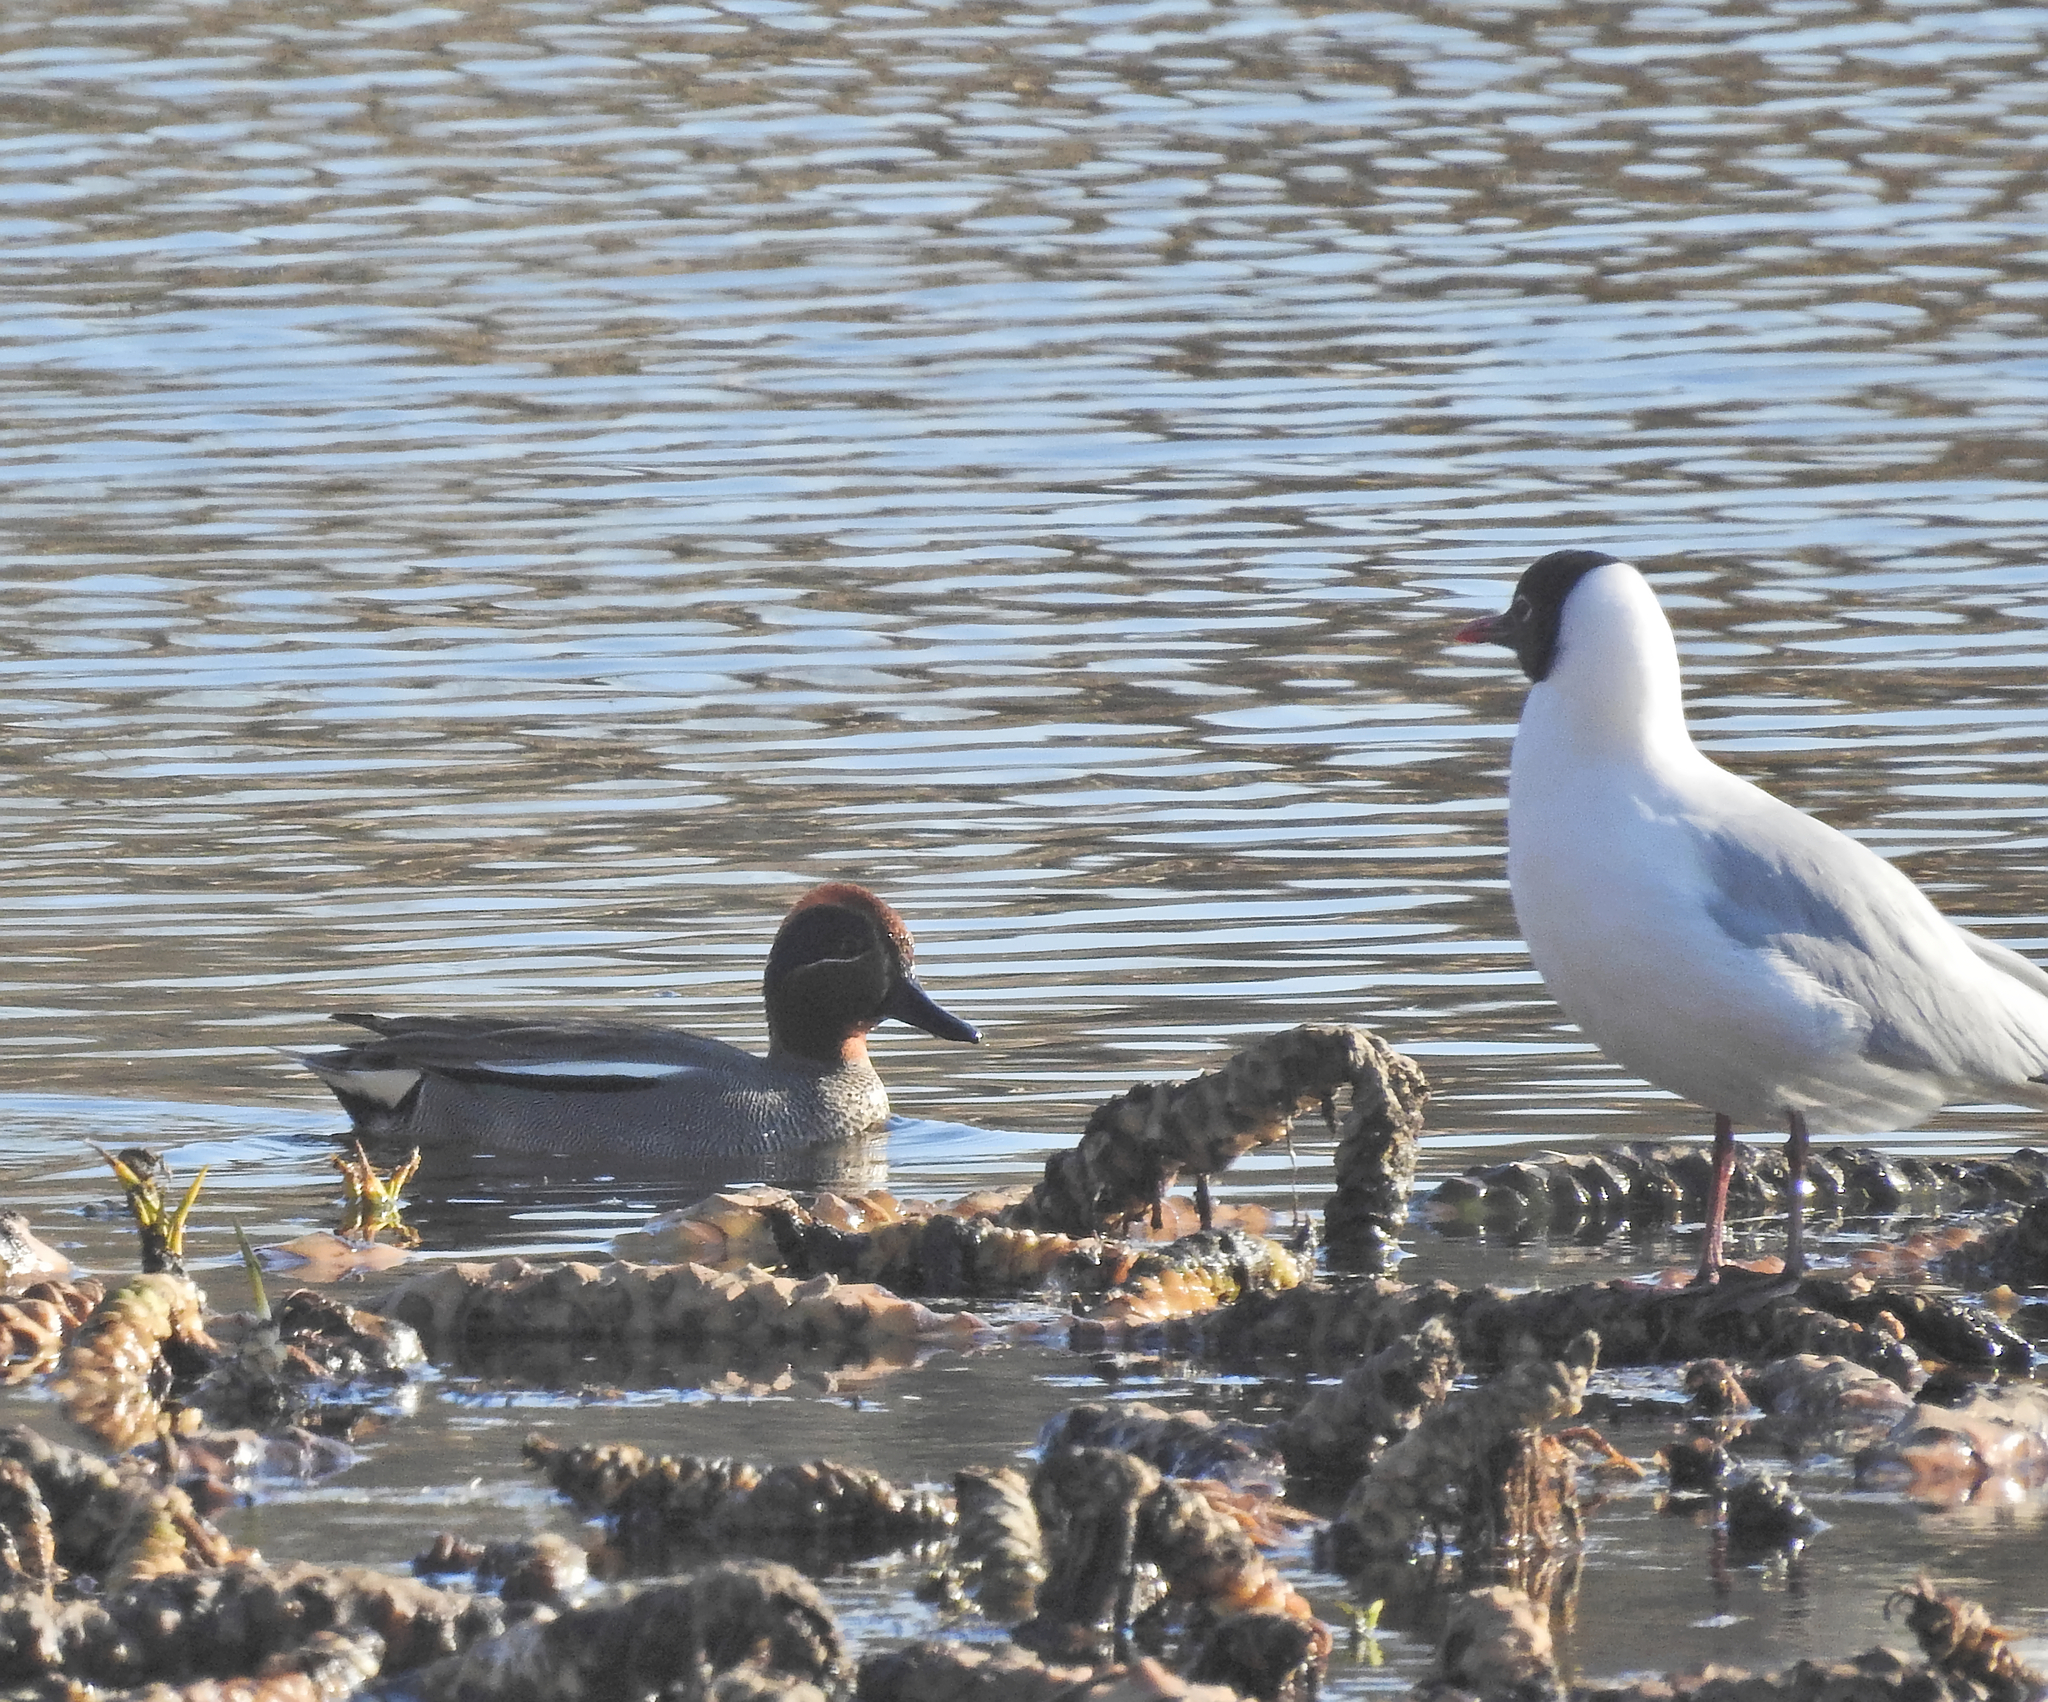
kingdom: Animalia
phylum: Chordata
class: Aves
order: Charadriiformes
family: Laridae
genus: Chroicocephalus
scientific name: Chroicocephalus ridibundus
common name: Black-headed gull
